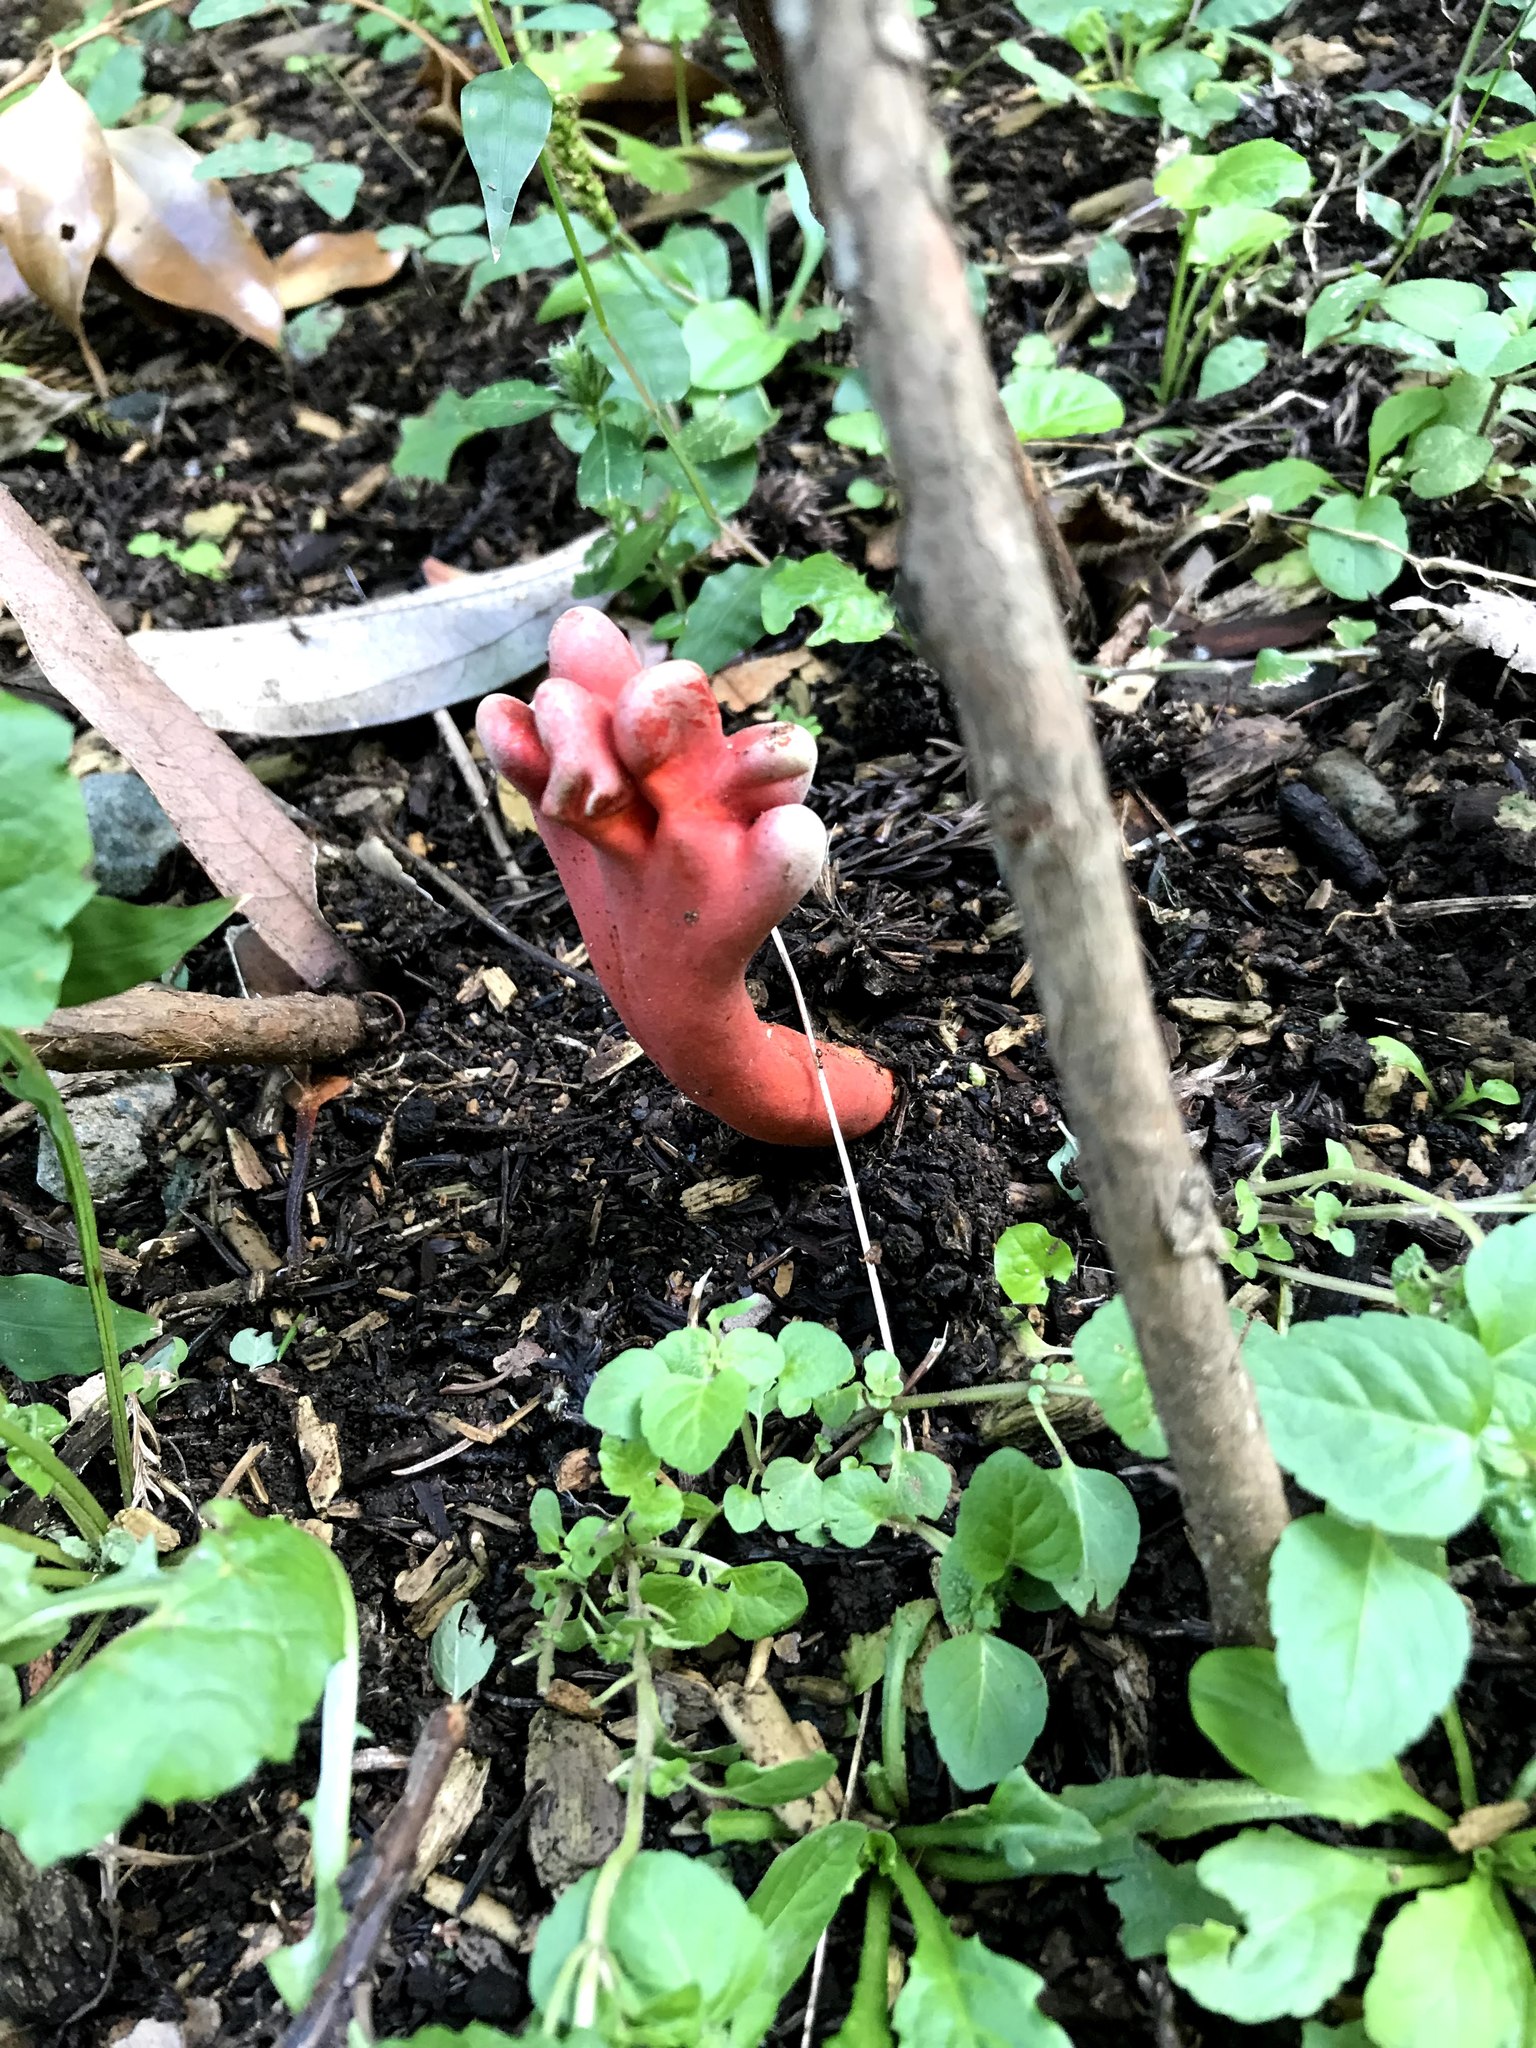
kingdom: Fungi
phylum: Ascomycota
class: Sordariomycetes
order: Hypocreales
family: Hypocreaceae
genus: Trichoderma
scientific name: Trichoderma cornu-damae
